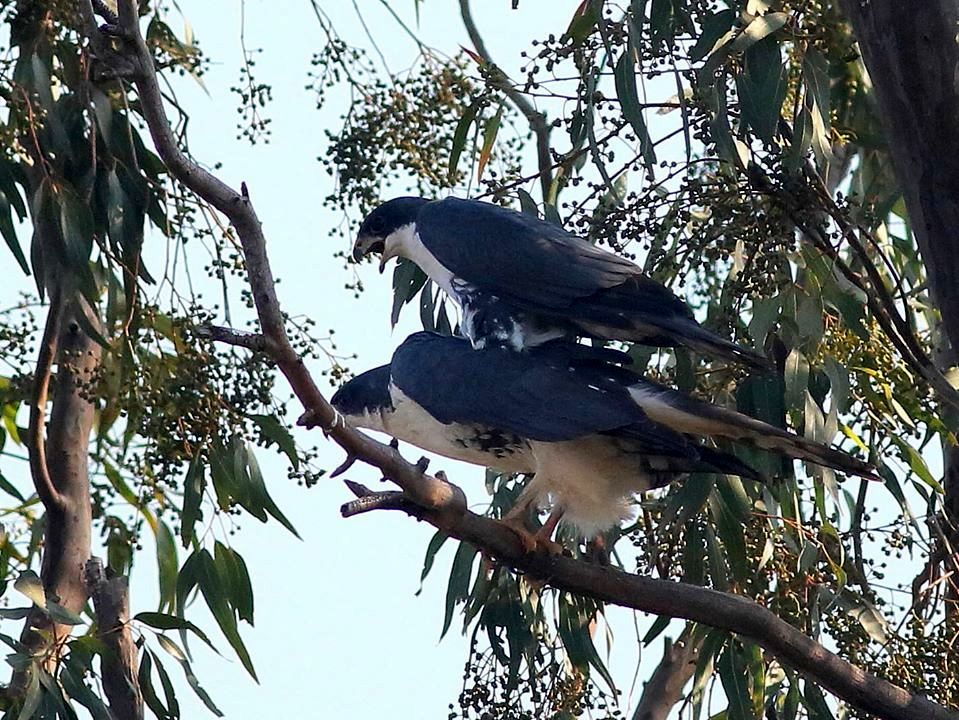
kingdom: Animalia
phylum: Chordata
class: Aves
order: Accipitriformes
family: Accipitridae
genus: Accipiter
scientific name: Accipiter melanoleucus
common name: Black sparrowhawk
